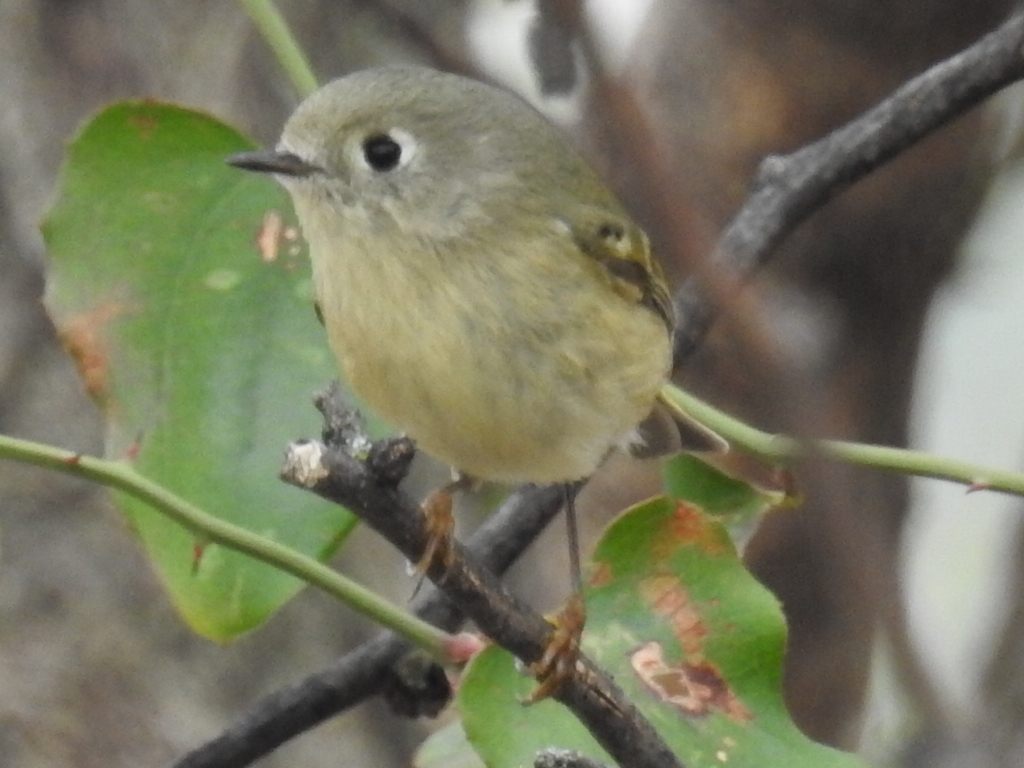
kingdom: Animalia
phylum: Chordata
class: Aves
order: Passeriformes
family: Regulidae
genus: Regulus
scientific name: Regulus calendula
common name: Ruby-crowned kinglet
